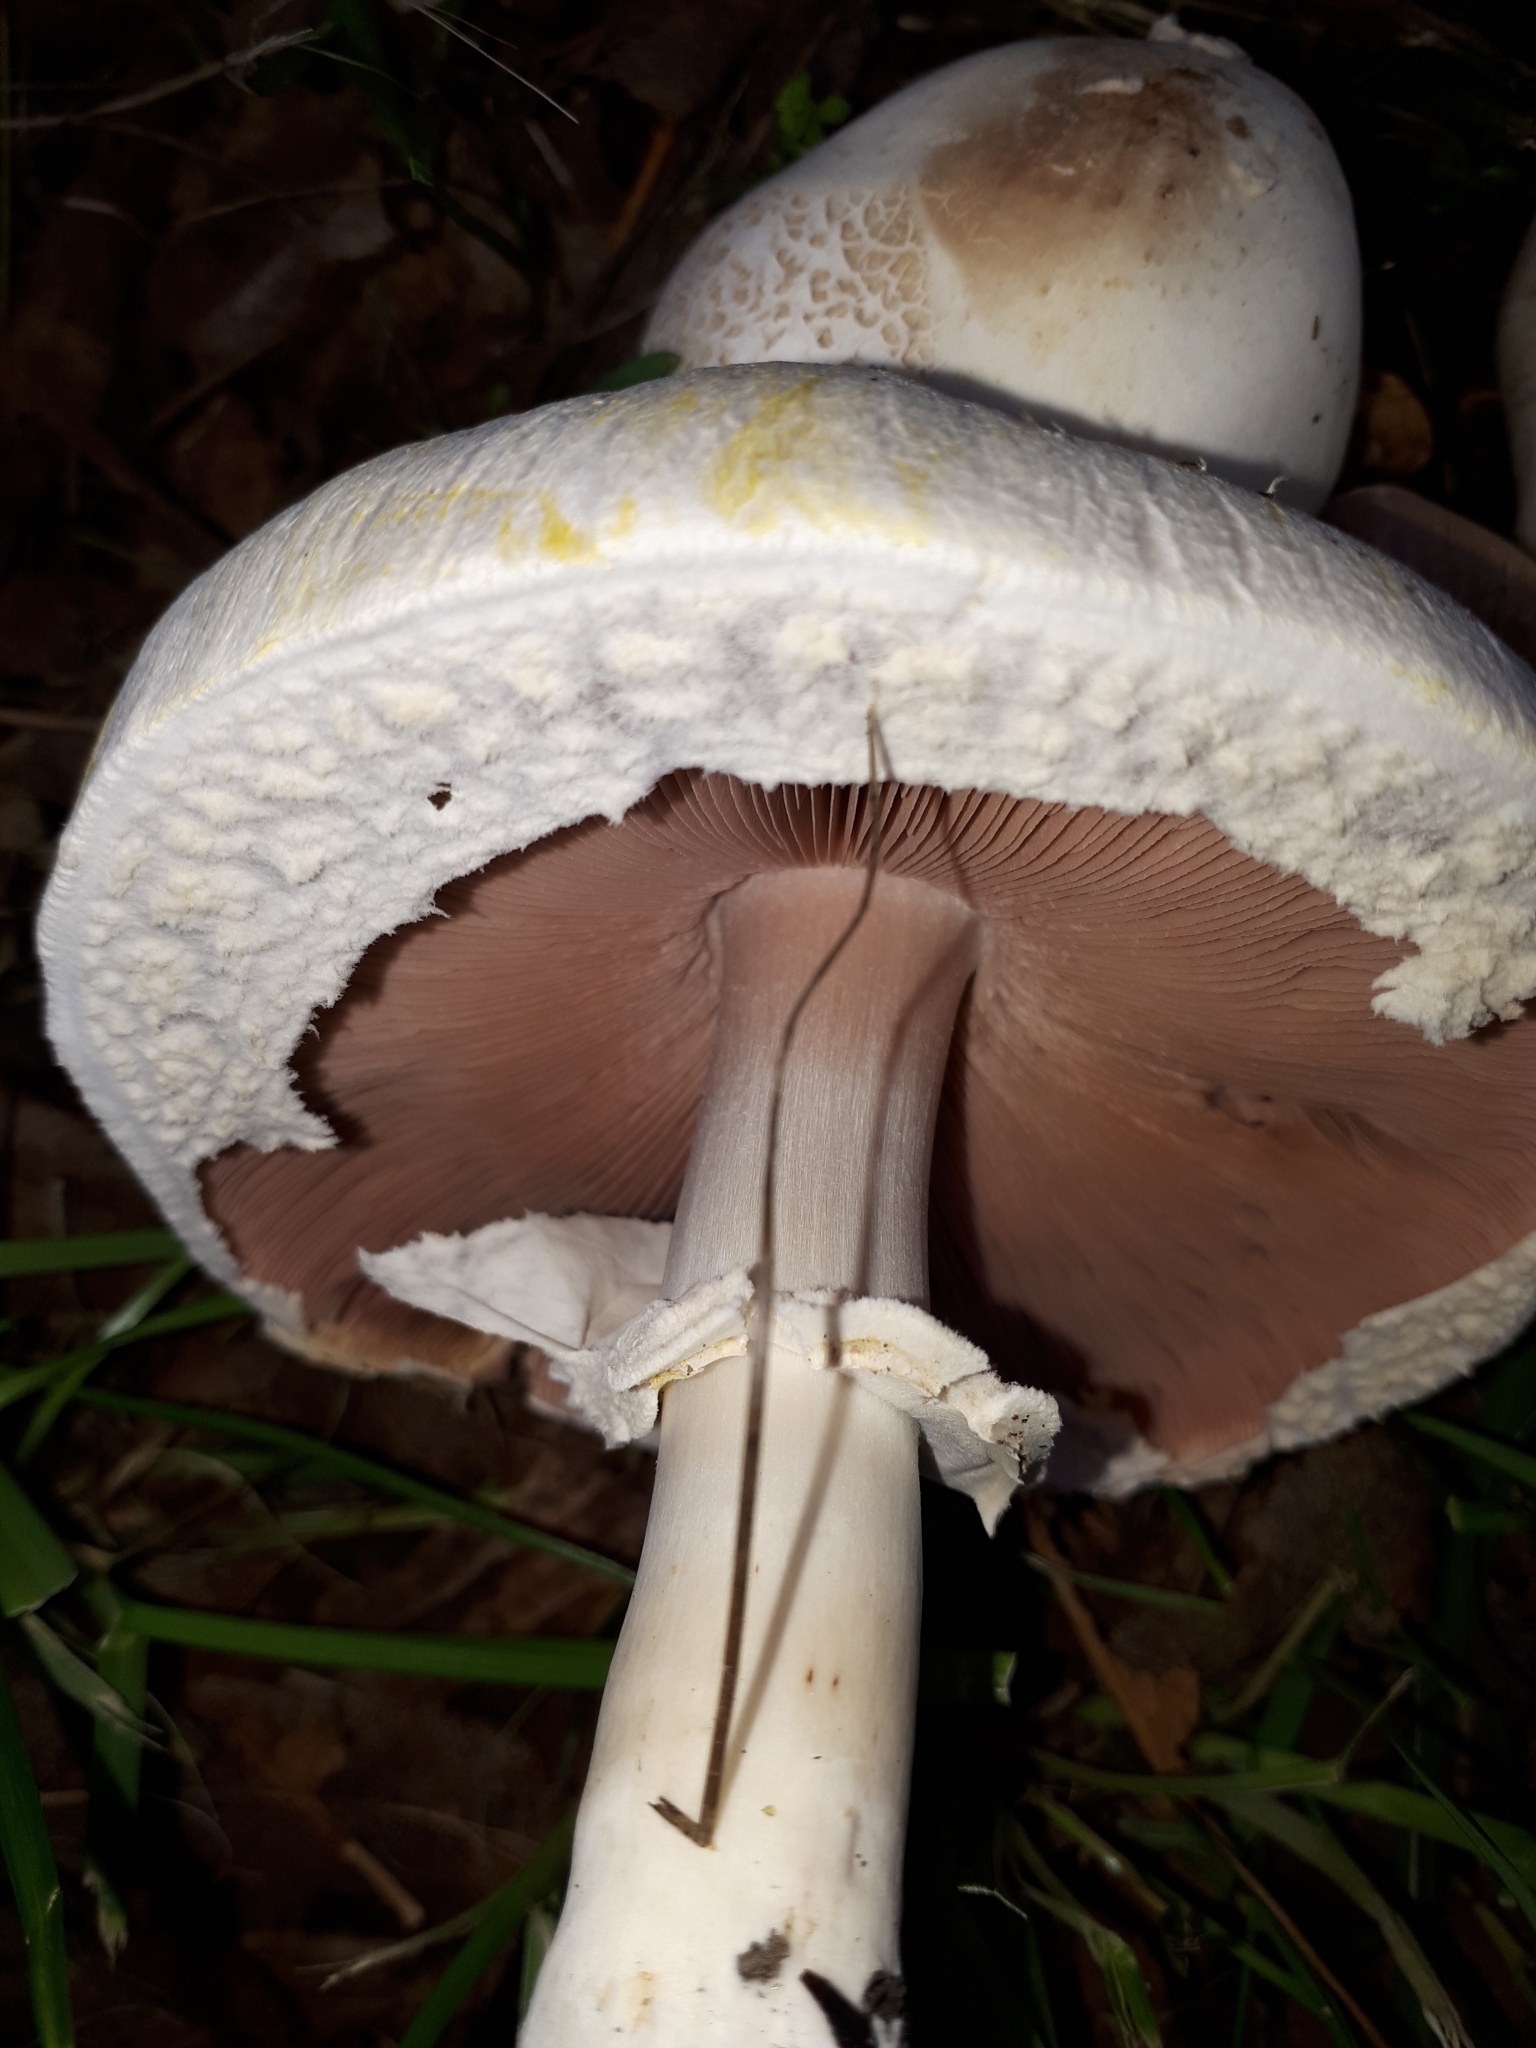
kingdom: Fungi
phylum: Basidiomycota
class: Agaricomycetes
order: Agaricales
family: Agaricaceae
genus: Agaricus
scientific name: Agaricus xanthodermus
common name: Yellow stainer
